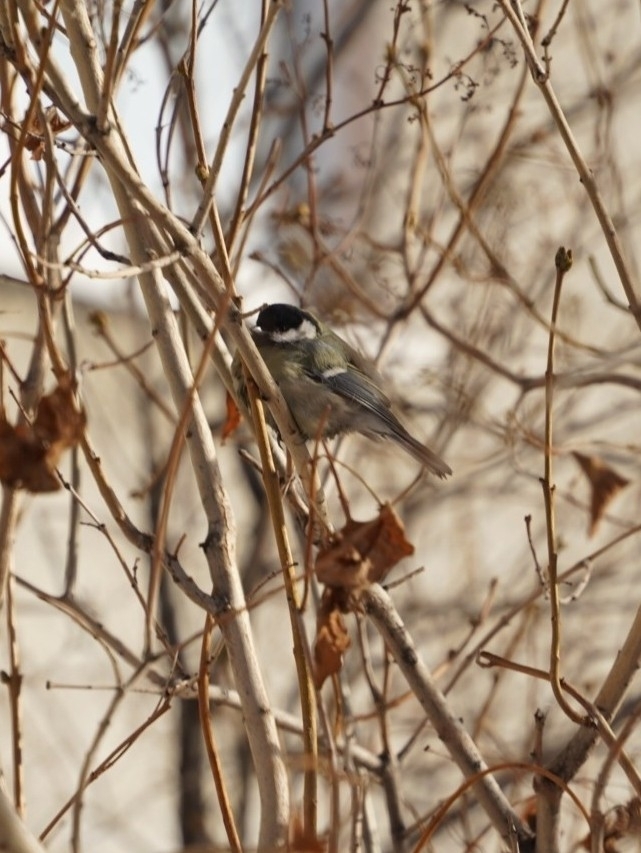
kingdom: Animalia
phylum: Chordata
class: Aves
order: Passeriformes
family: Paridae
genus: Parus
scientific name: Parus major
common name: Great tit
